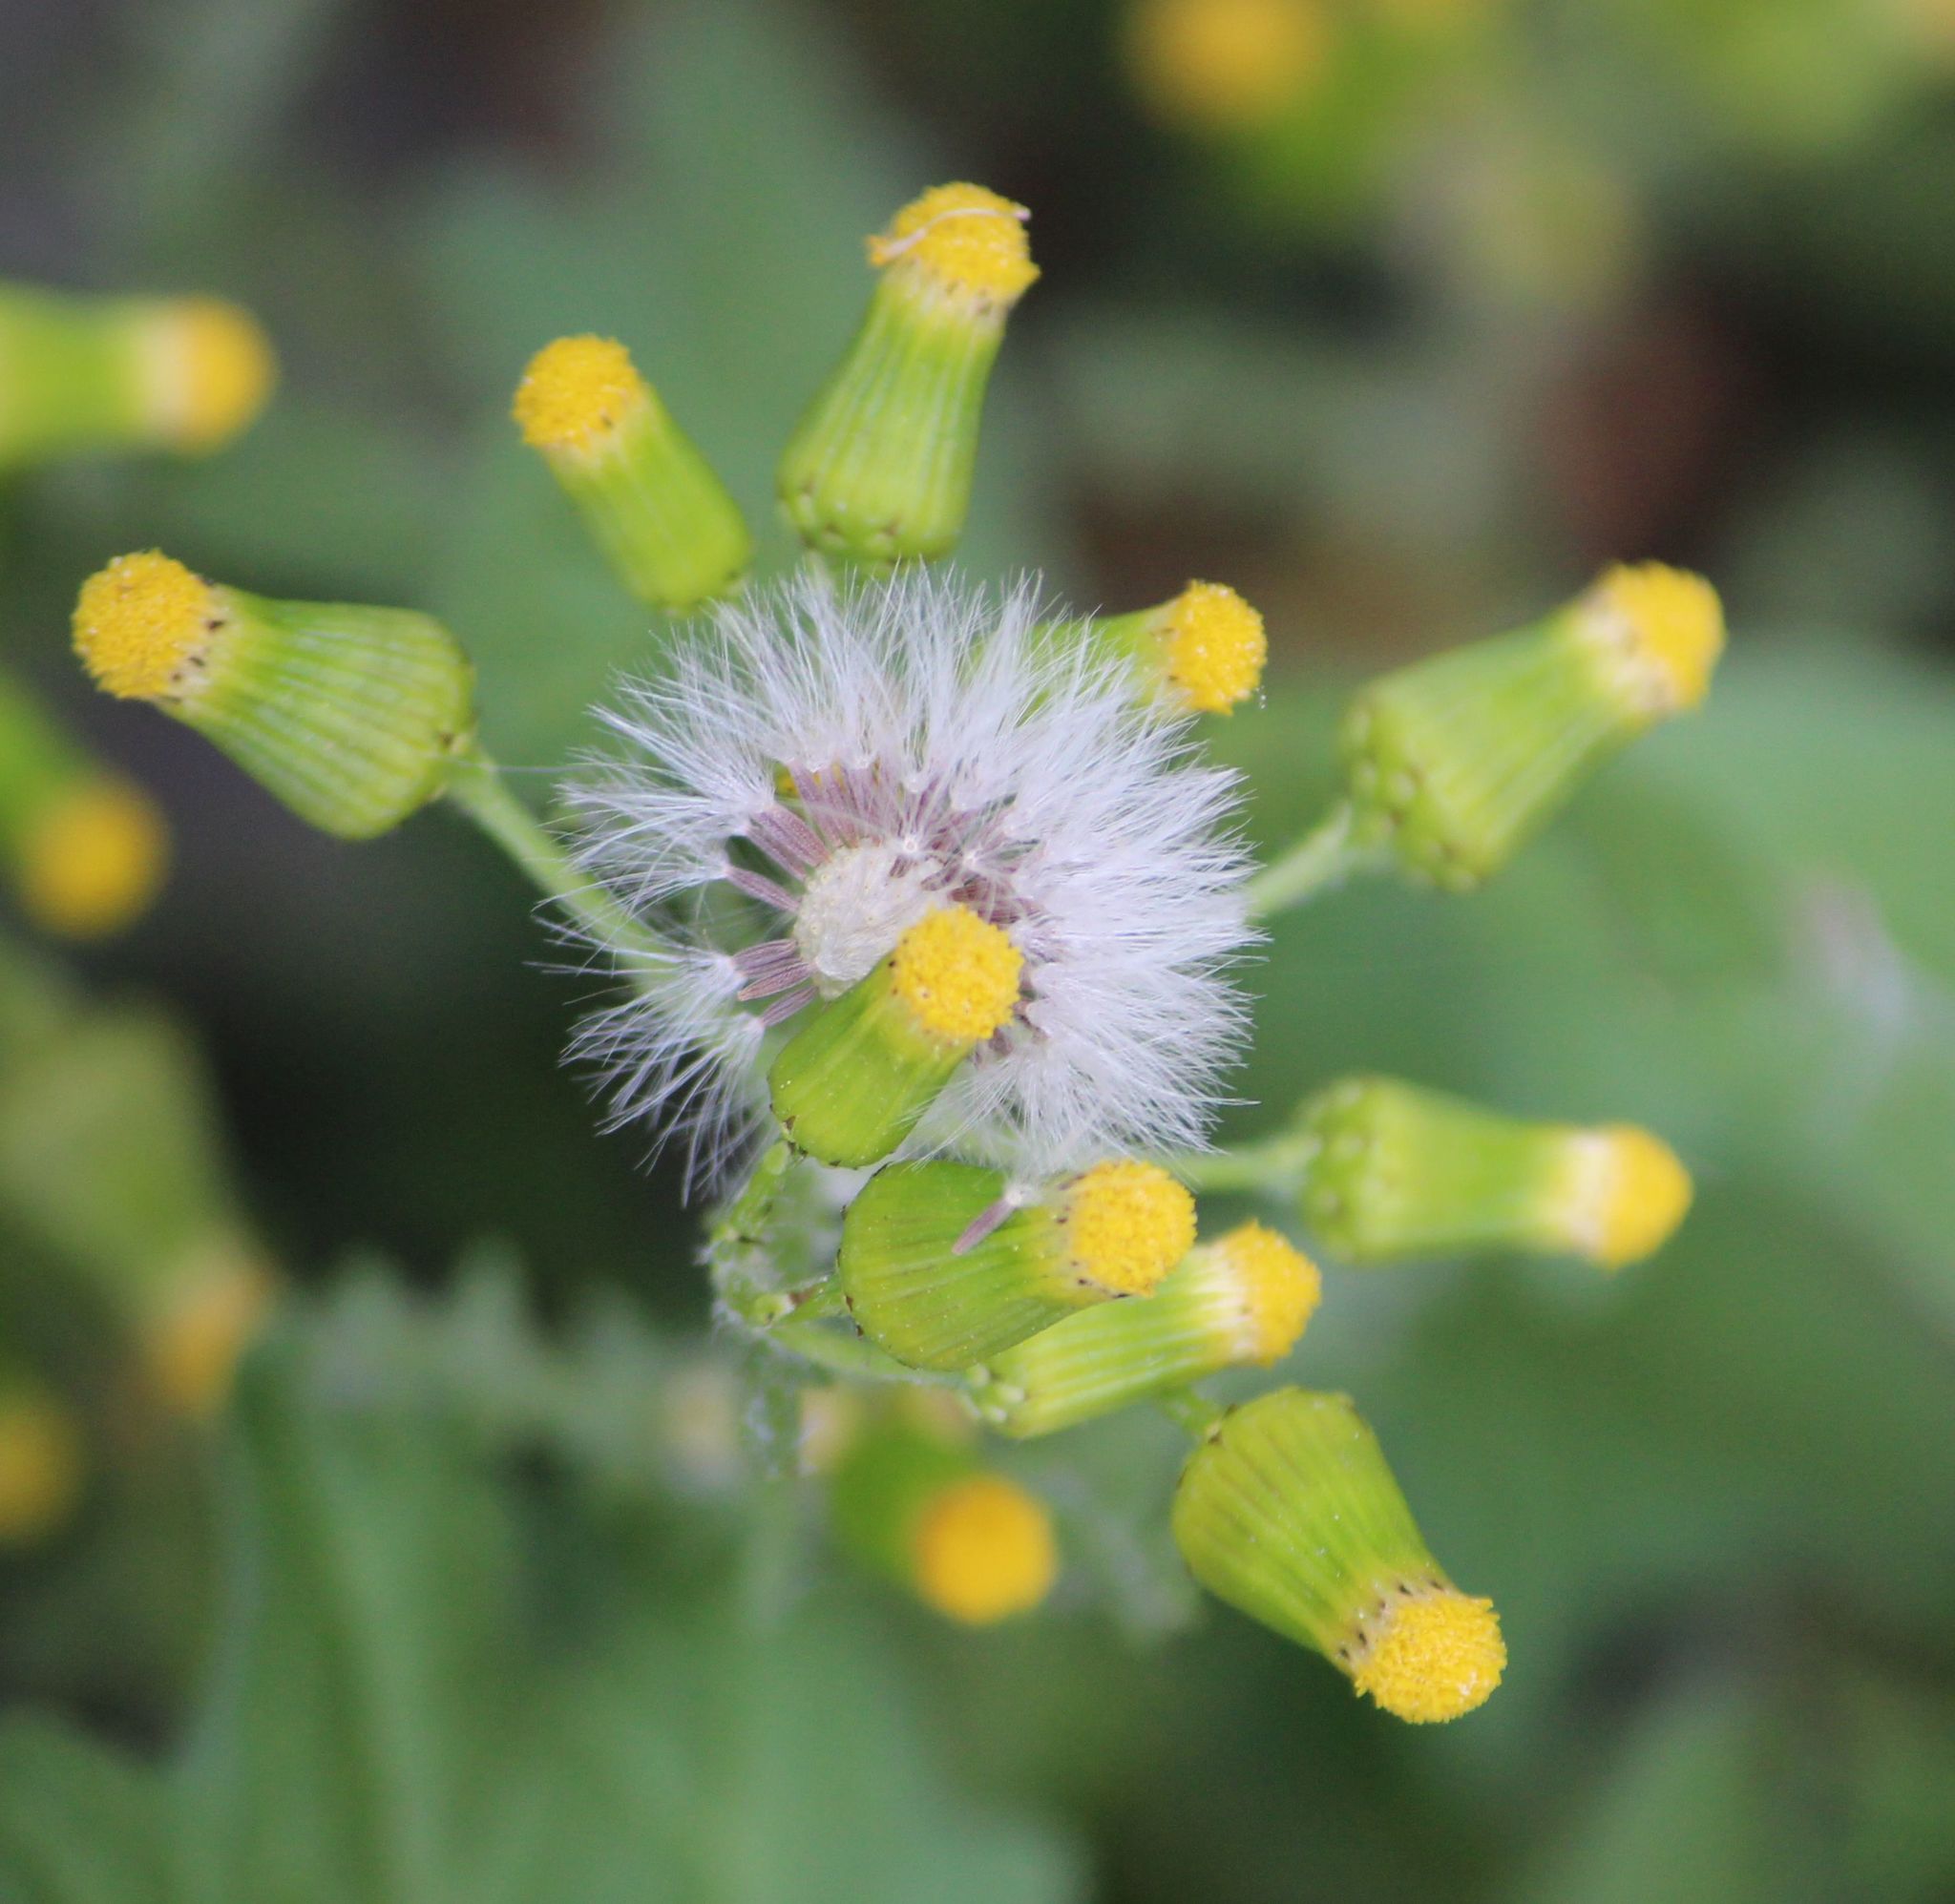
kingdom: Plantae
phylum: Tracheophyta
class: Magnoliopsida
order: Asterales
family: Asteraceae
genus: Senecio
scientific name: Senecio vulgaris
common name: Old-man-in-the-spring
